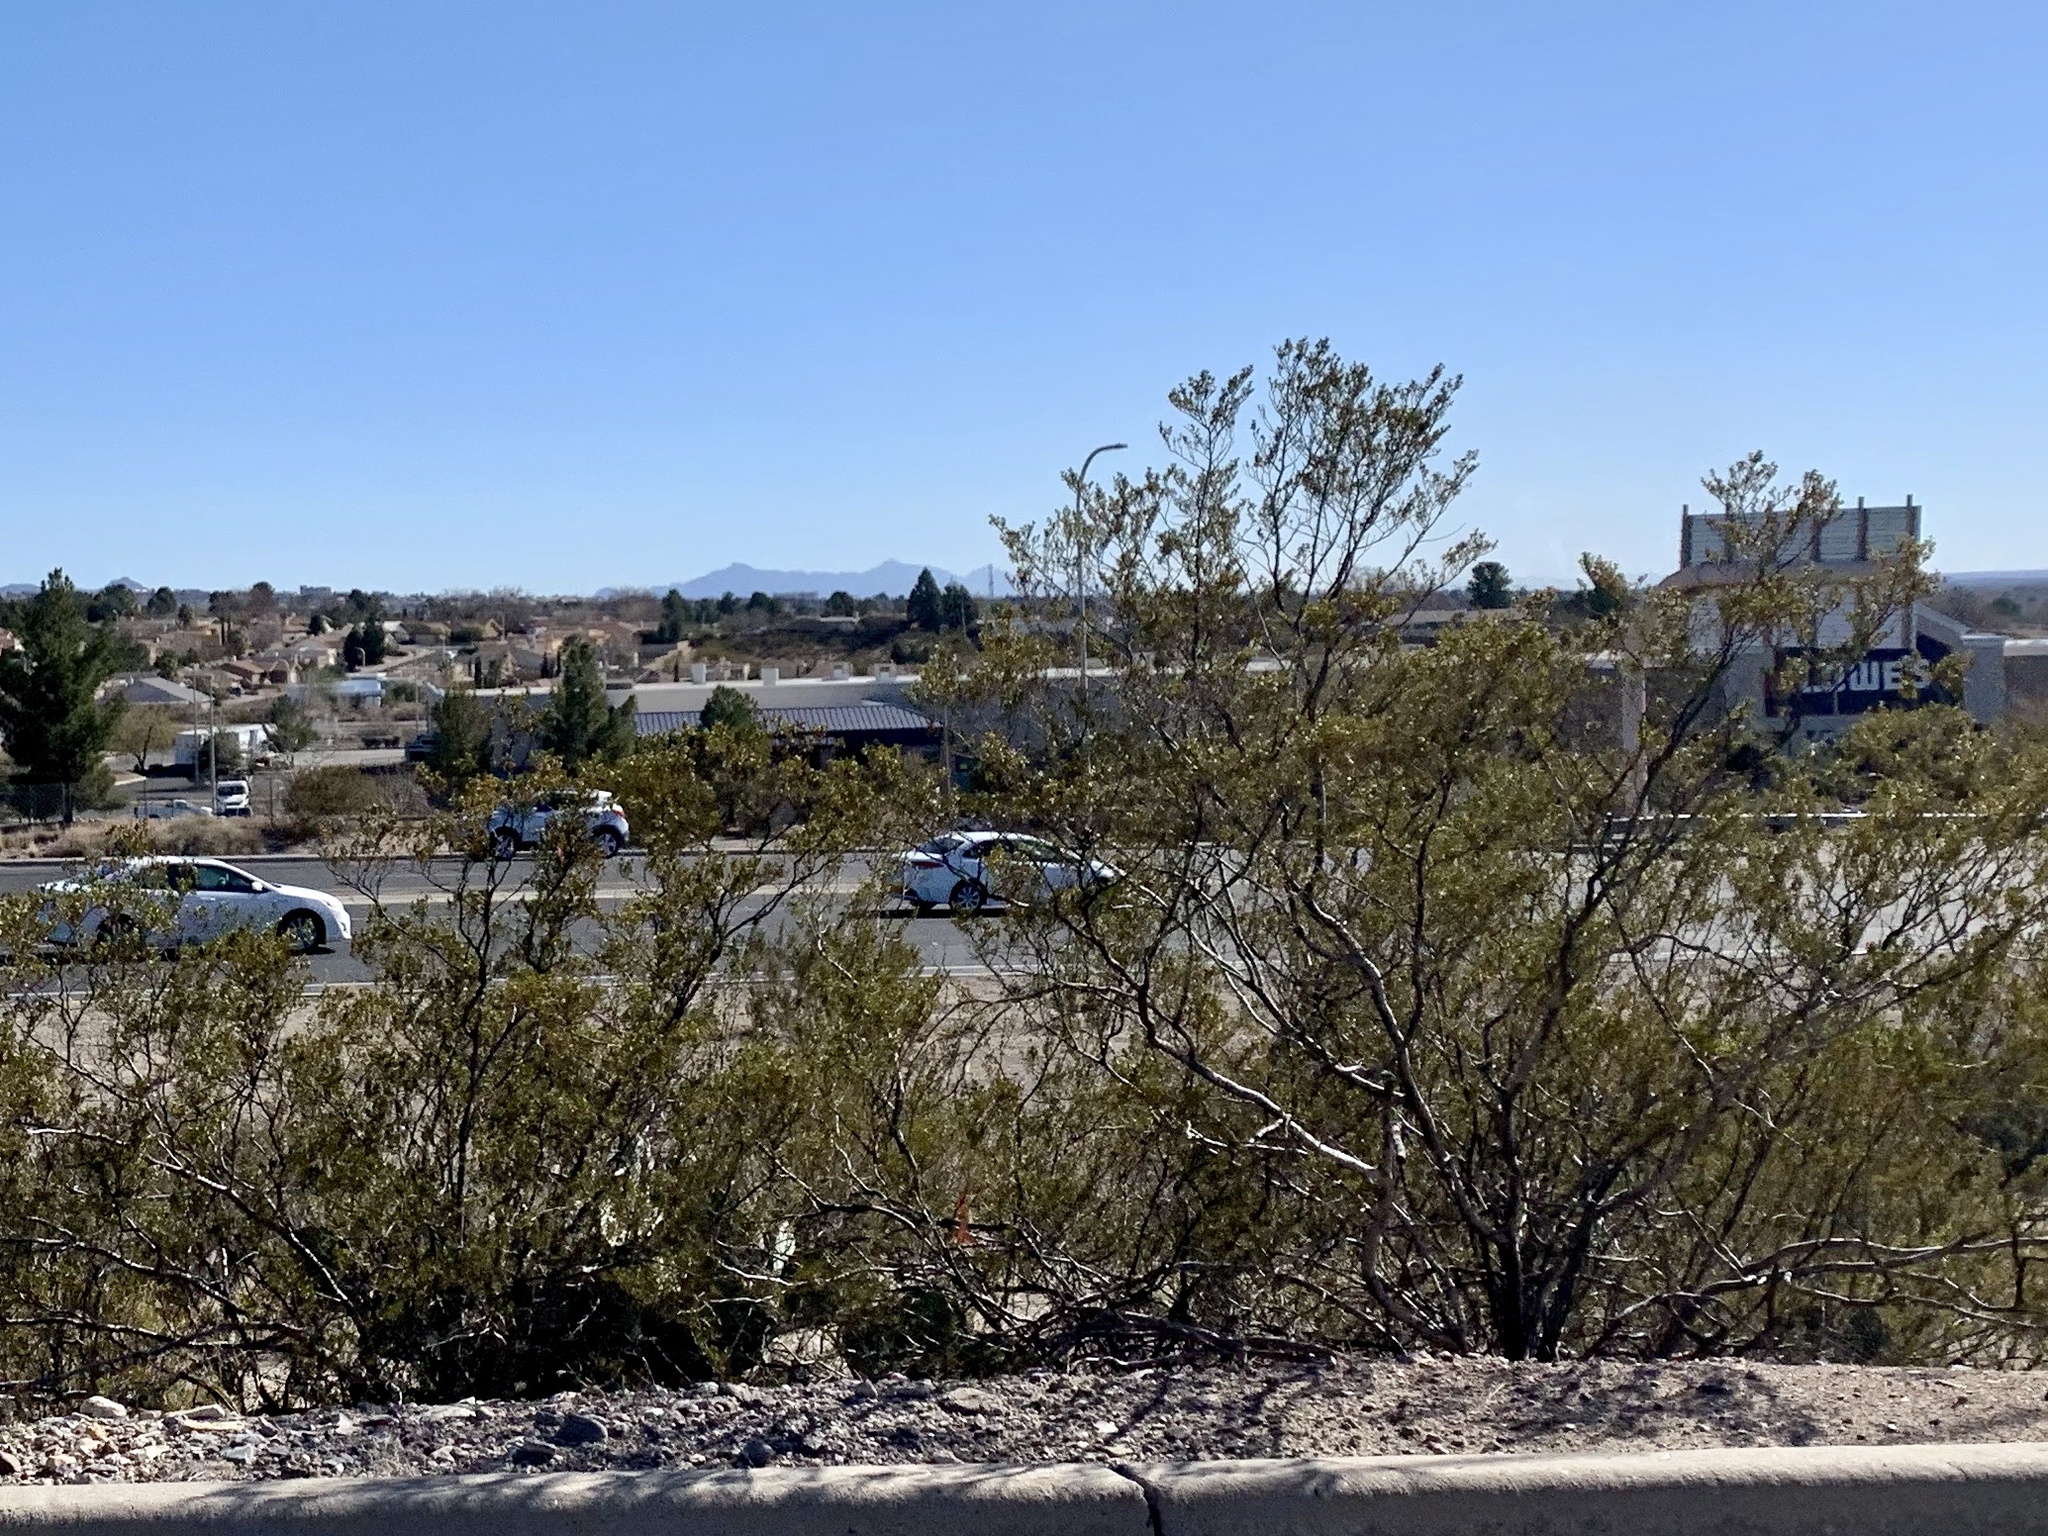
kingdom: Plantae
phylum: Tracheophyta
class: Magnoliopsida
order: Zygophyllales
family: Zygophyllaceae
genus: Larrea
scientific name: Larrea tridentata
